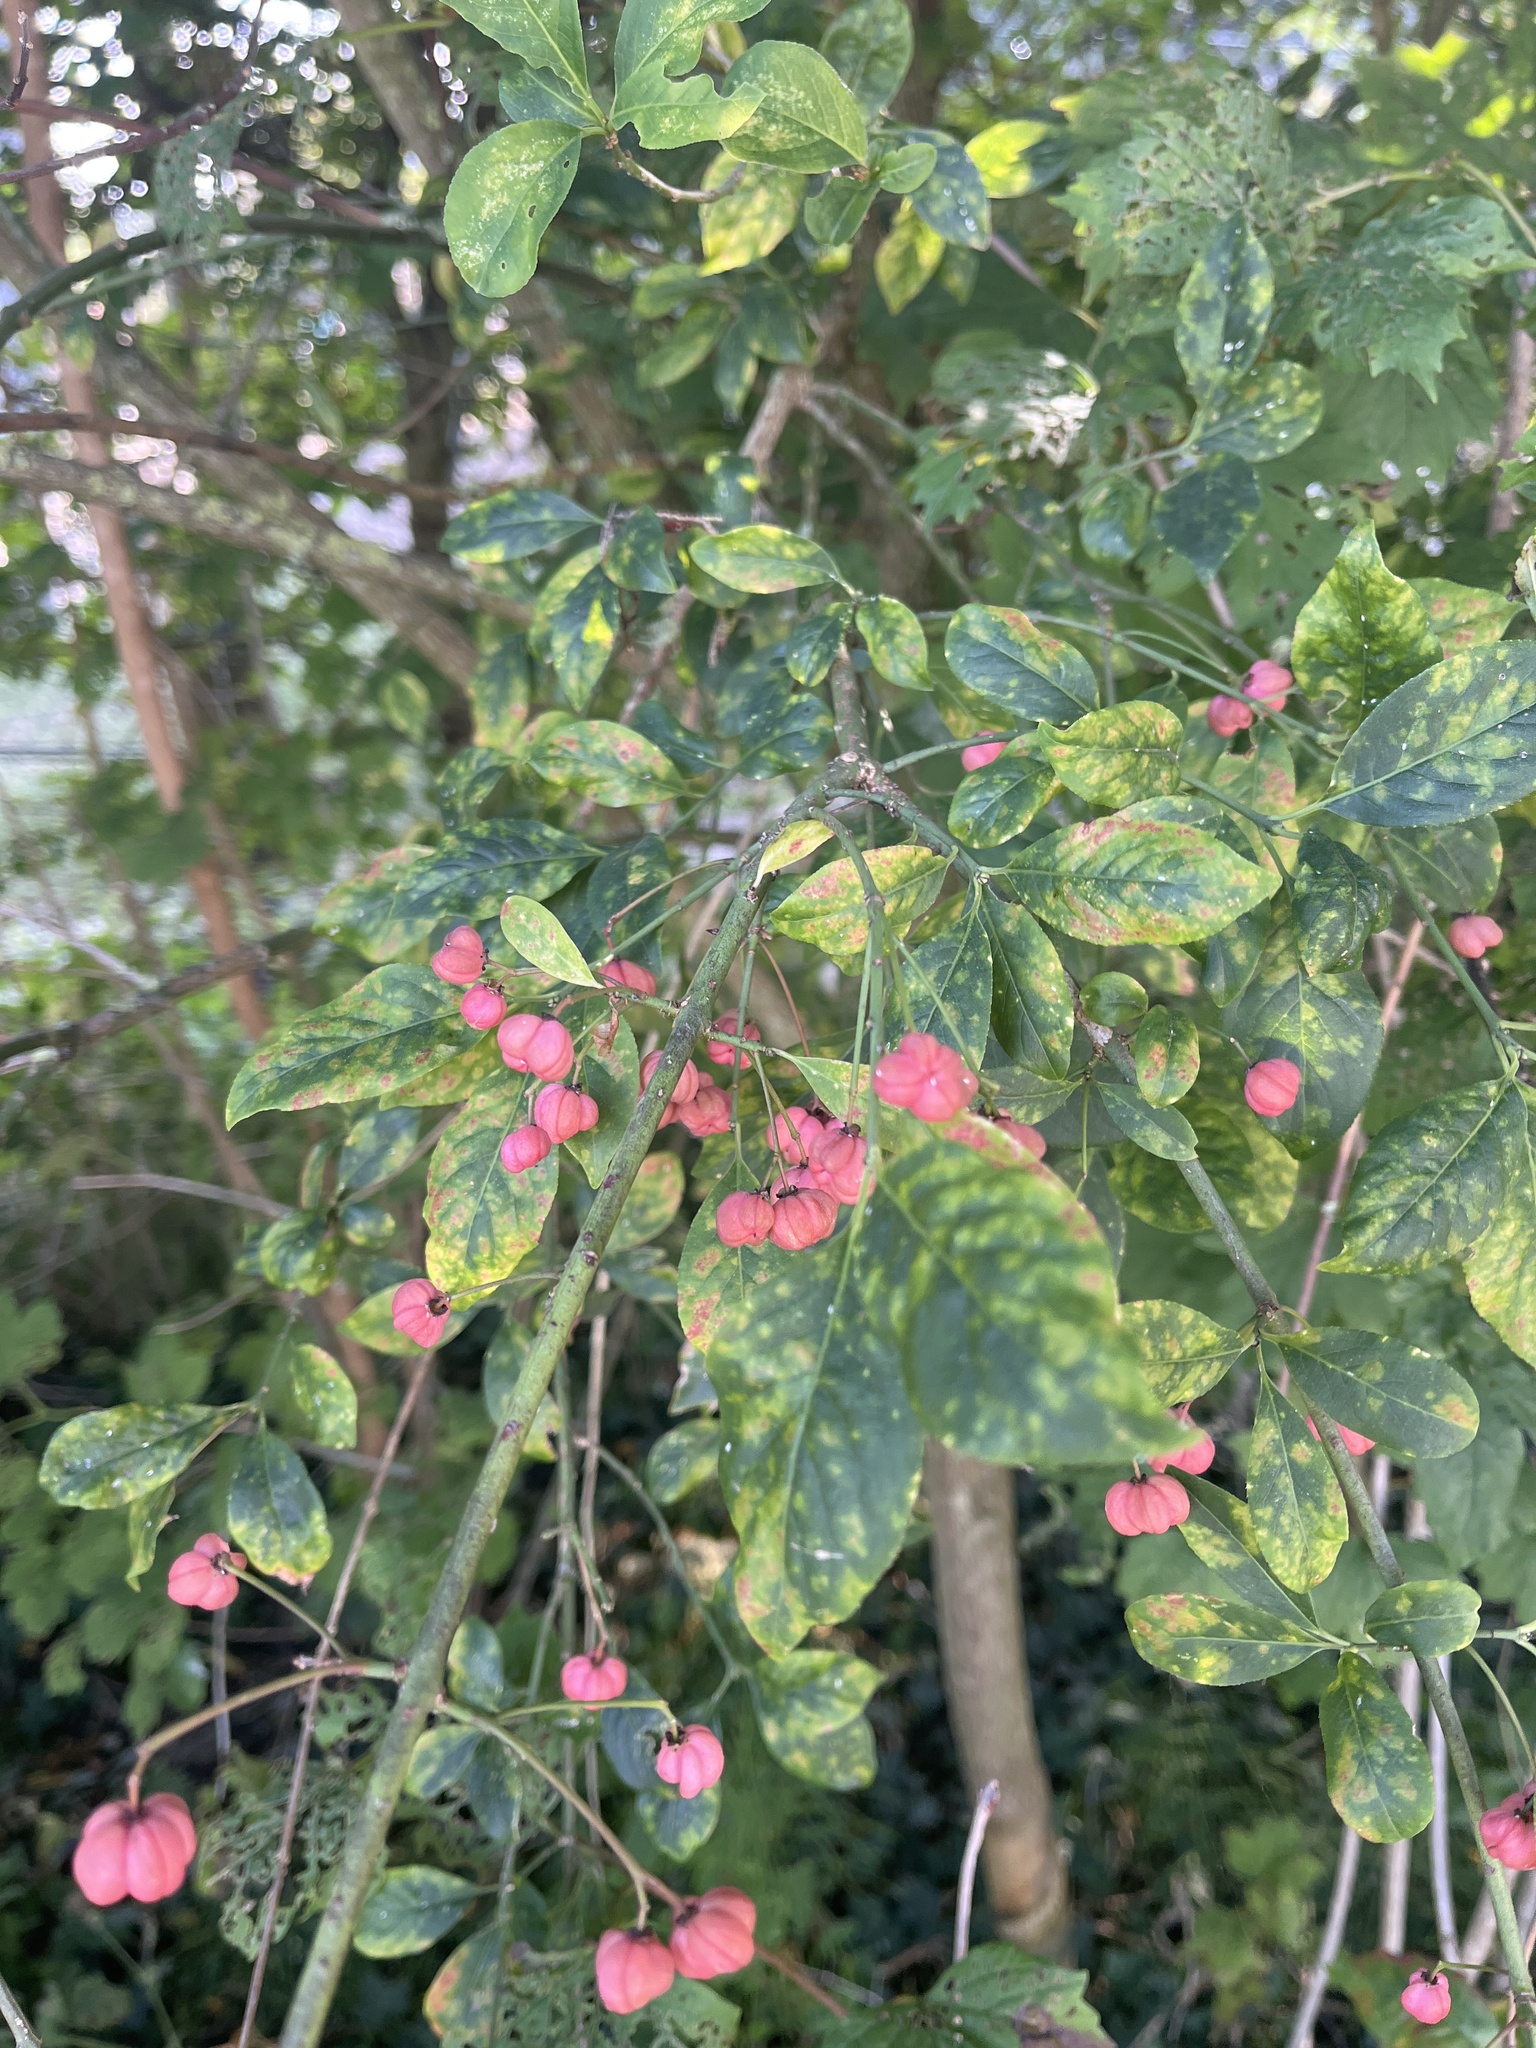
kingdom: Plantae
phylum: Tracheophyta
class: Magnoliopsida
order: Celastrales
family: Celastraceae
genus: Euonymus
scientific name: Euonymus europaeus
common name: Spindle
